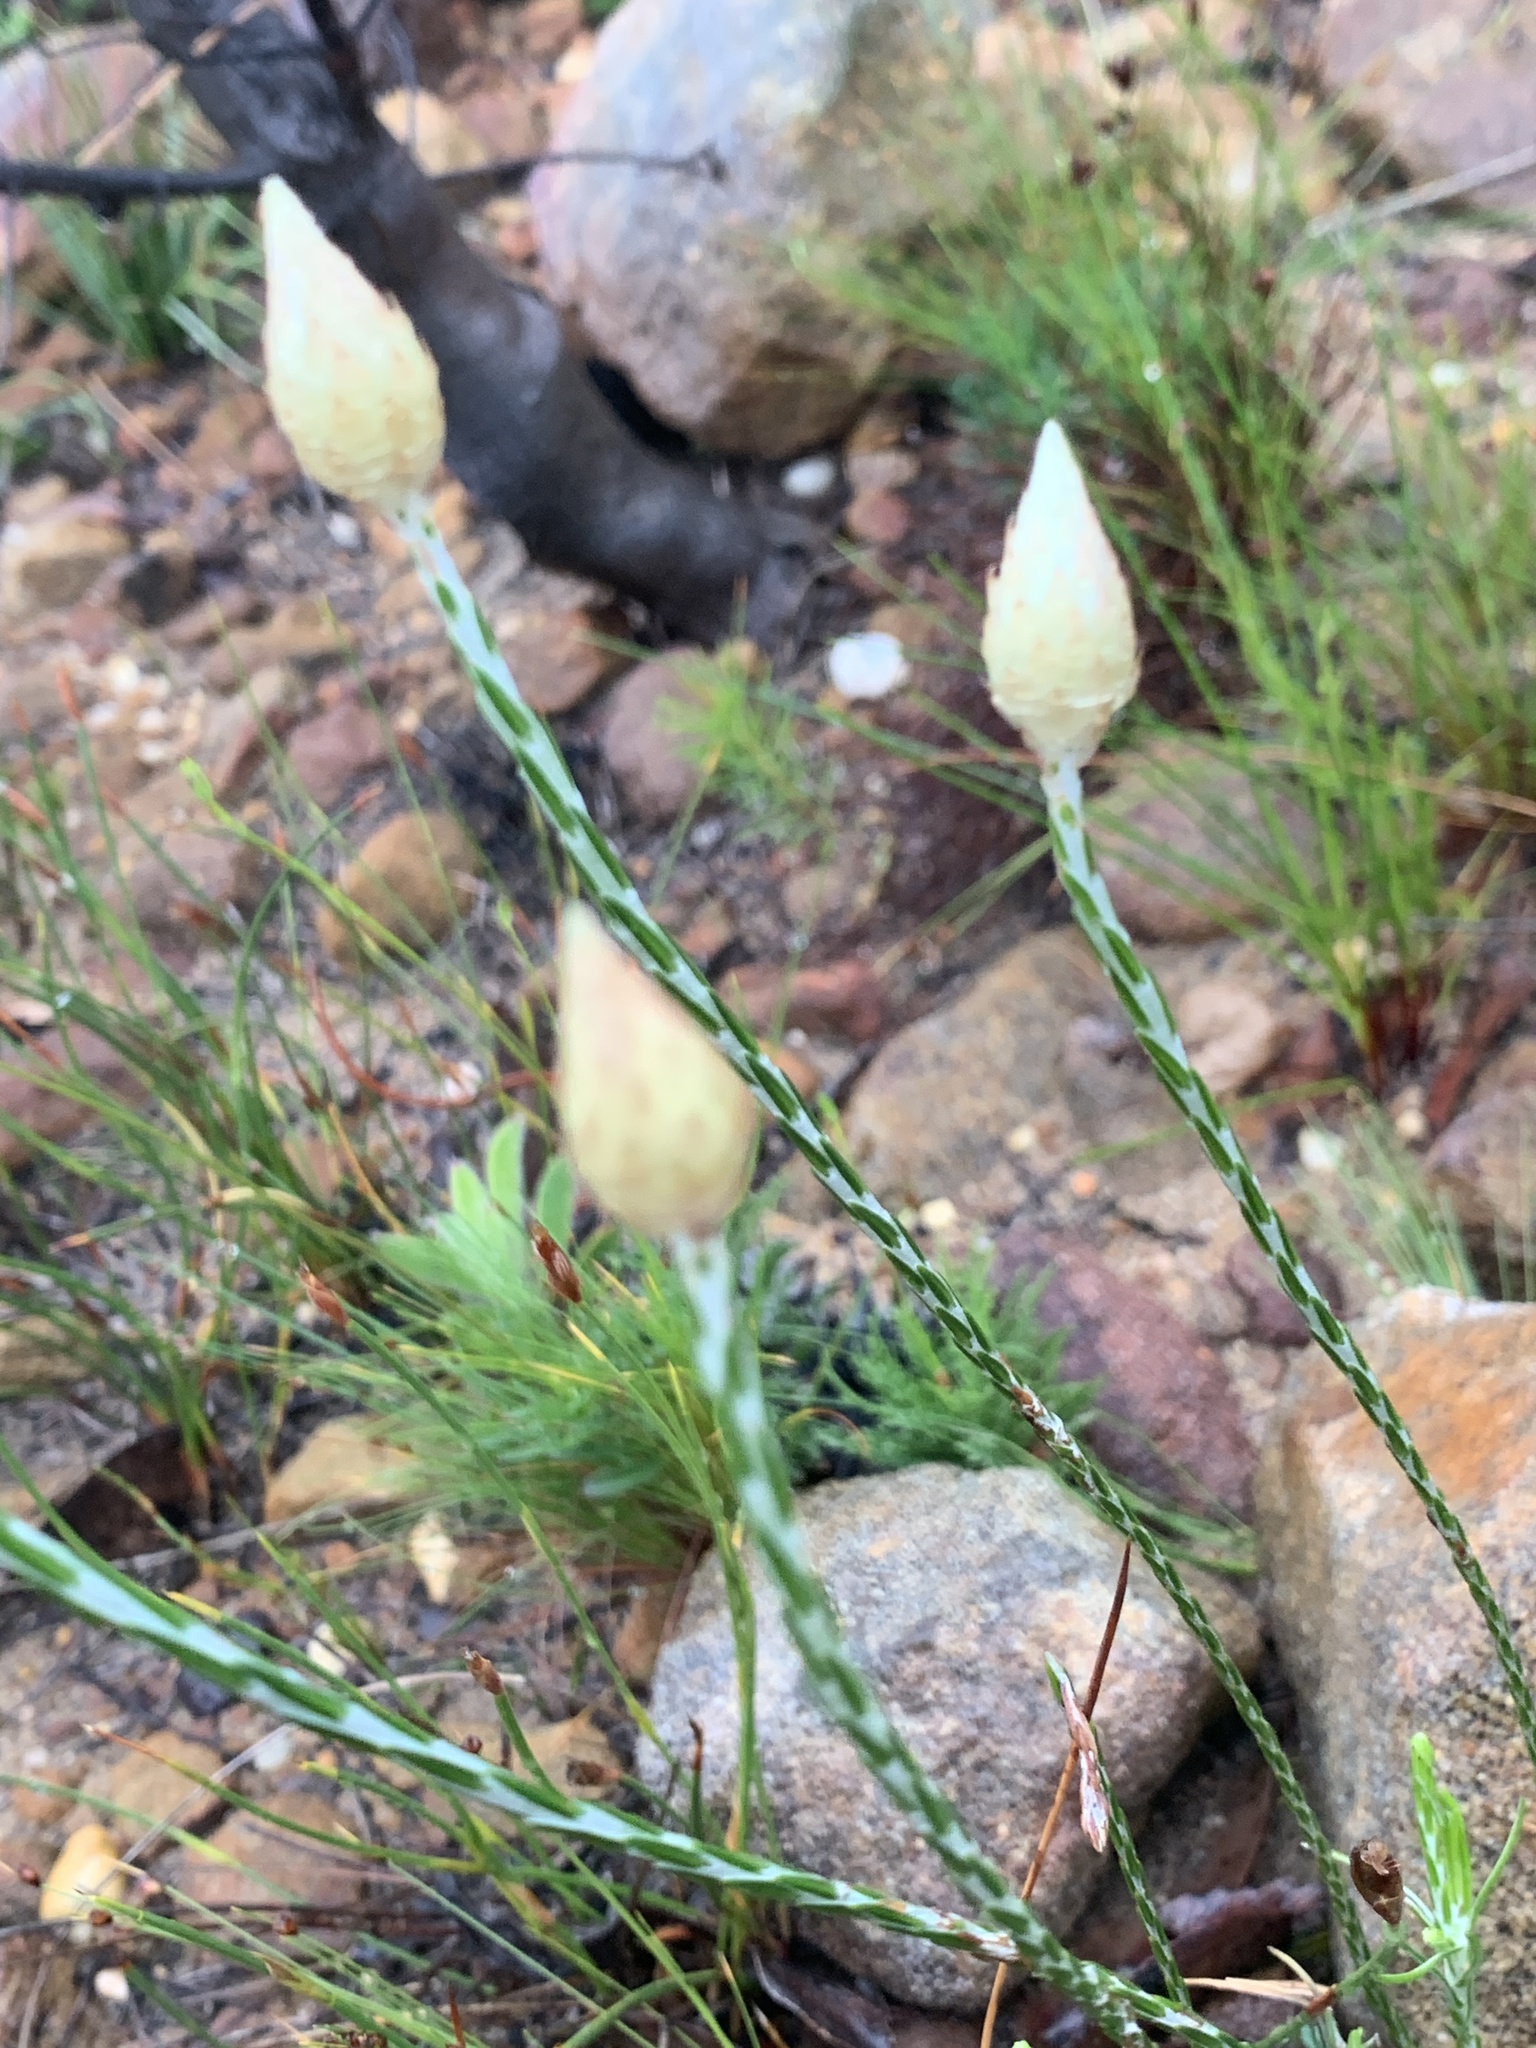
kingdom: Plantae
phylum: Tracheophyta
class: Magnoliopsida
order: Asterales
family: Asteraceae
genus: Edmondia
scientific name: Edmondia sesamoides
